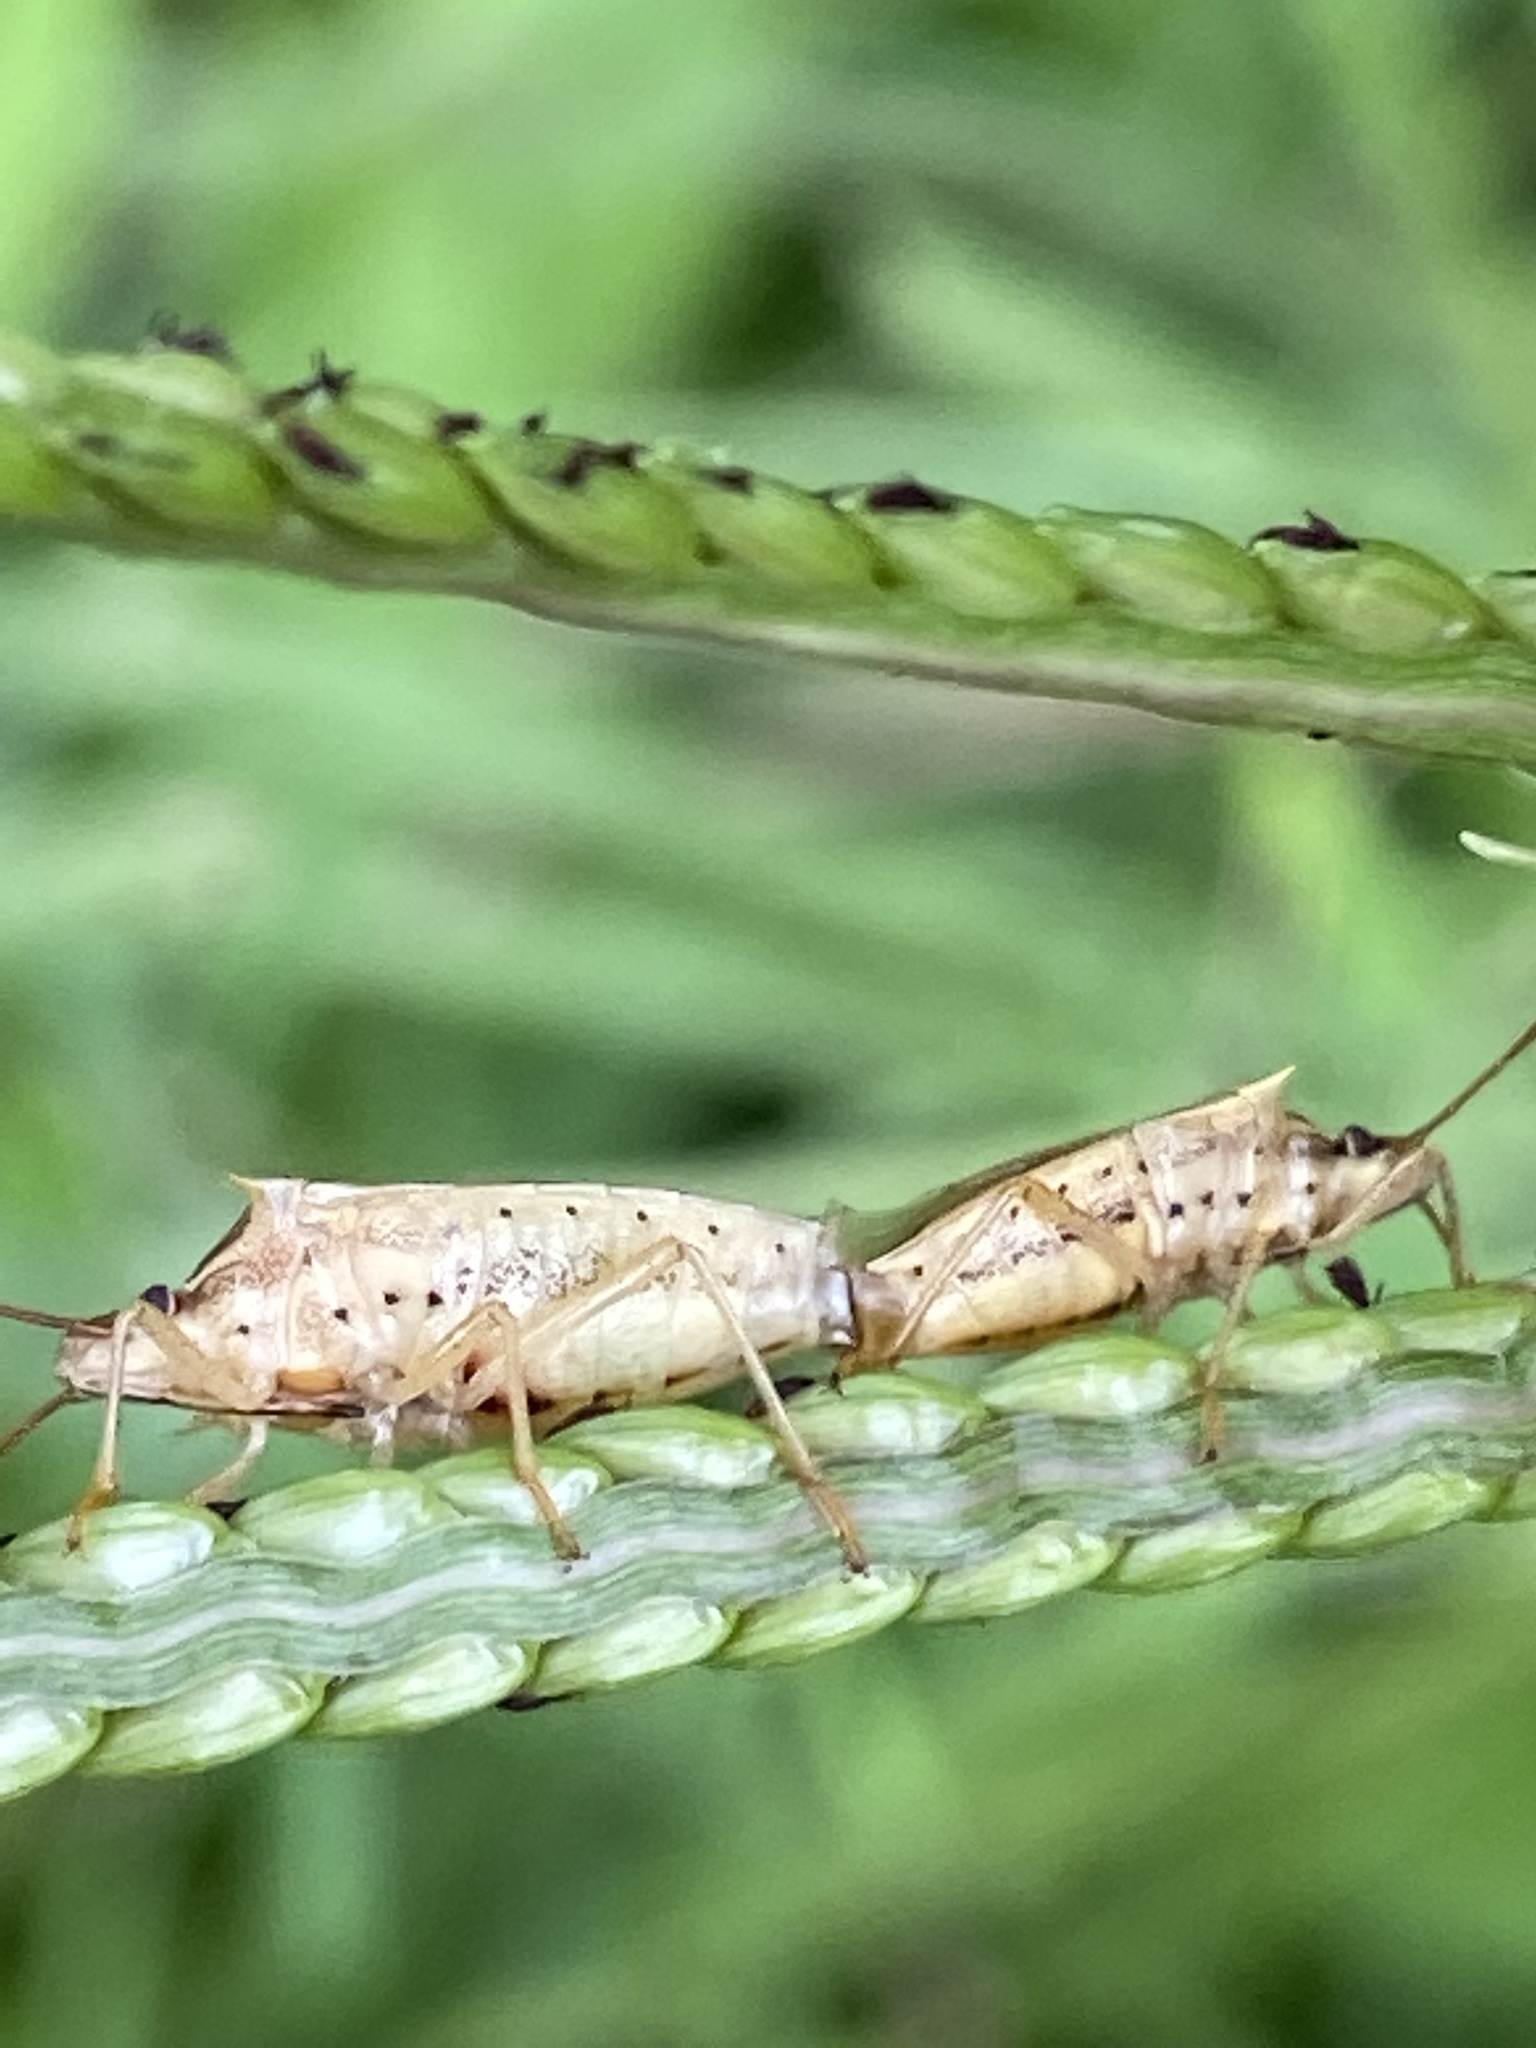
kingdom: Animalia
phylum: Arthropoda
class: Insecta
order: Hemiptera
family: Pentatomidae
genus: Oebalus
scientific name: Oebalus pugnax
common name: Rice stink bug
